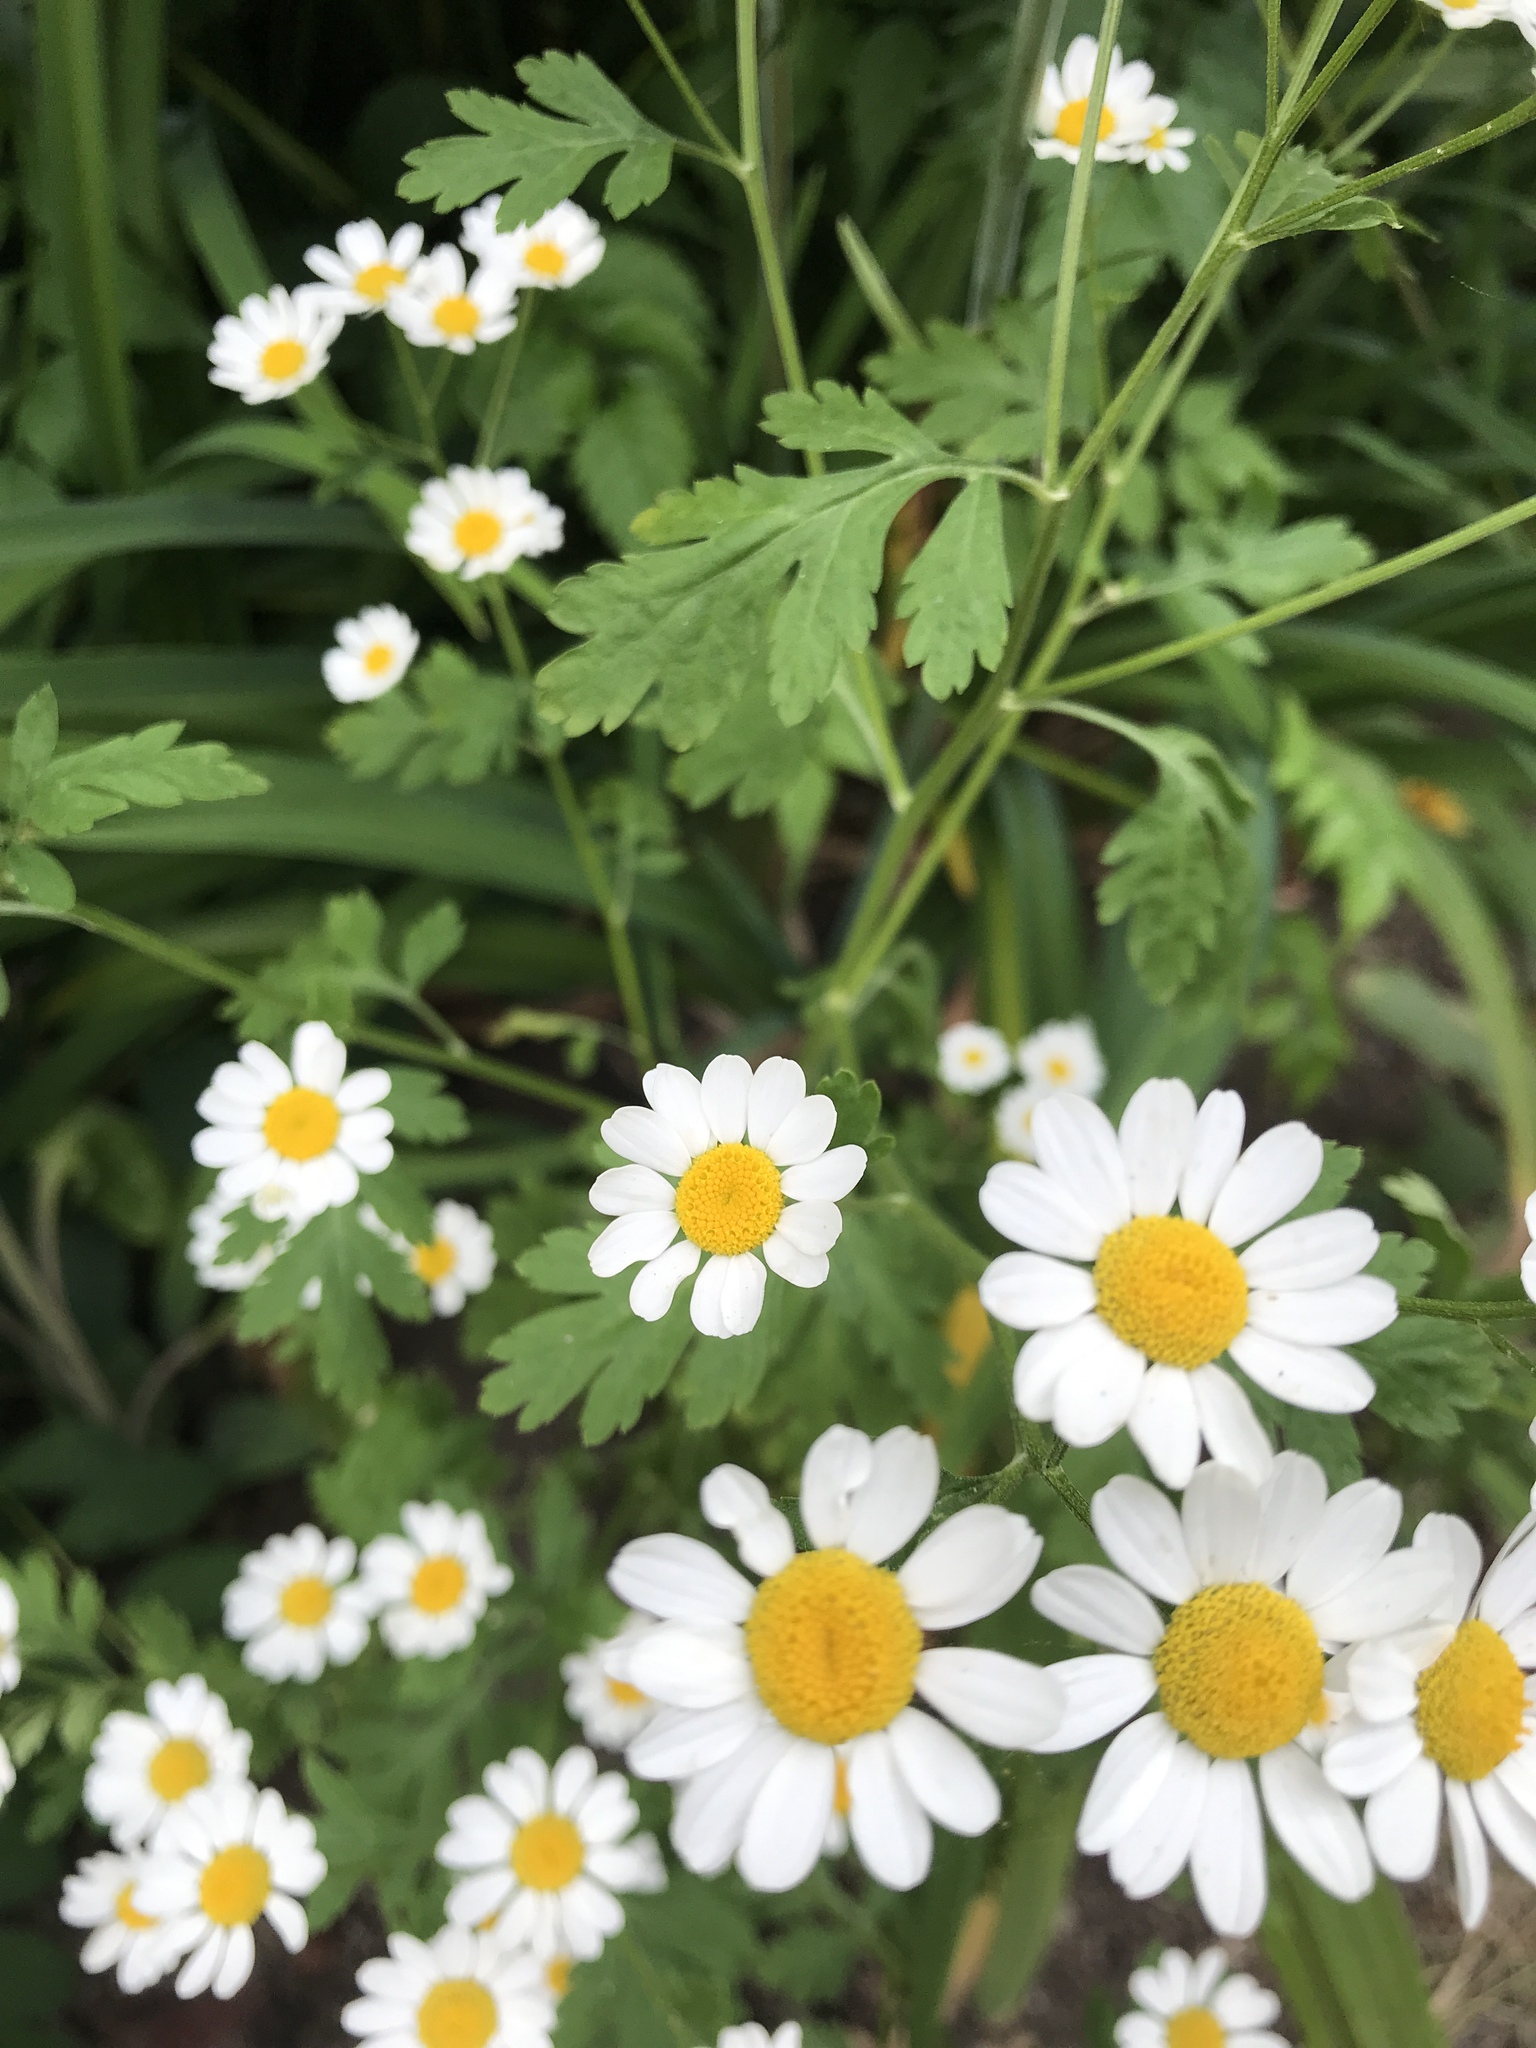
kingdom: Plantae
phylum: Tracheophyta
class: Magnoliopsida
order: Asterales
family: Asteraceae
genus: Tanacetum
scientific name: Tanacetum parthenium
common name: Feverfew
